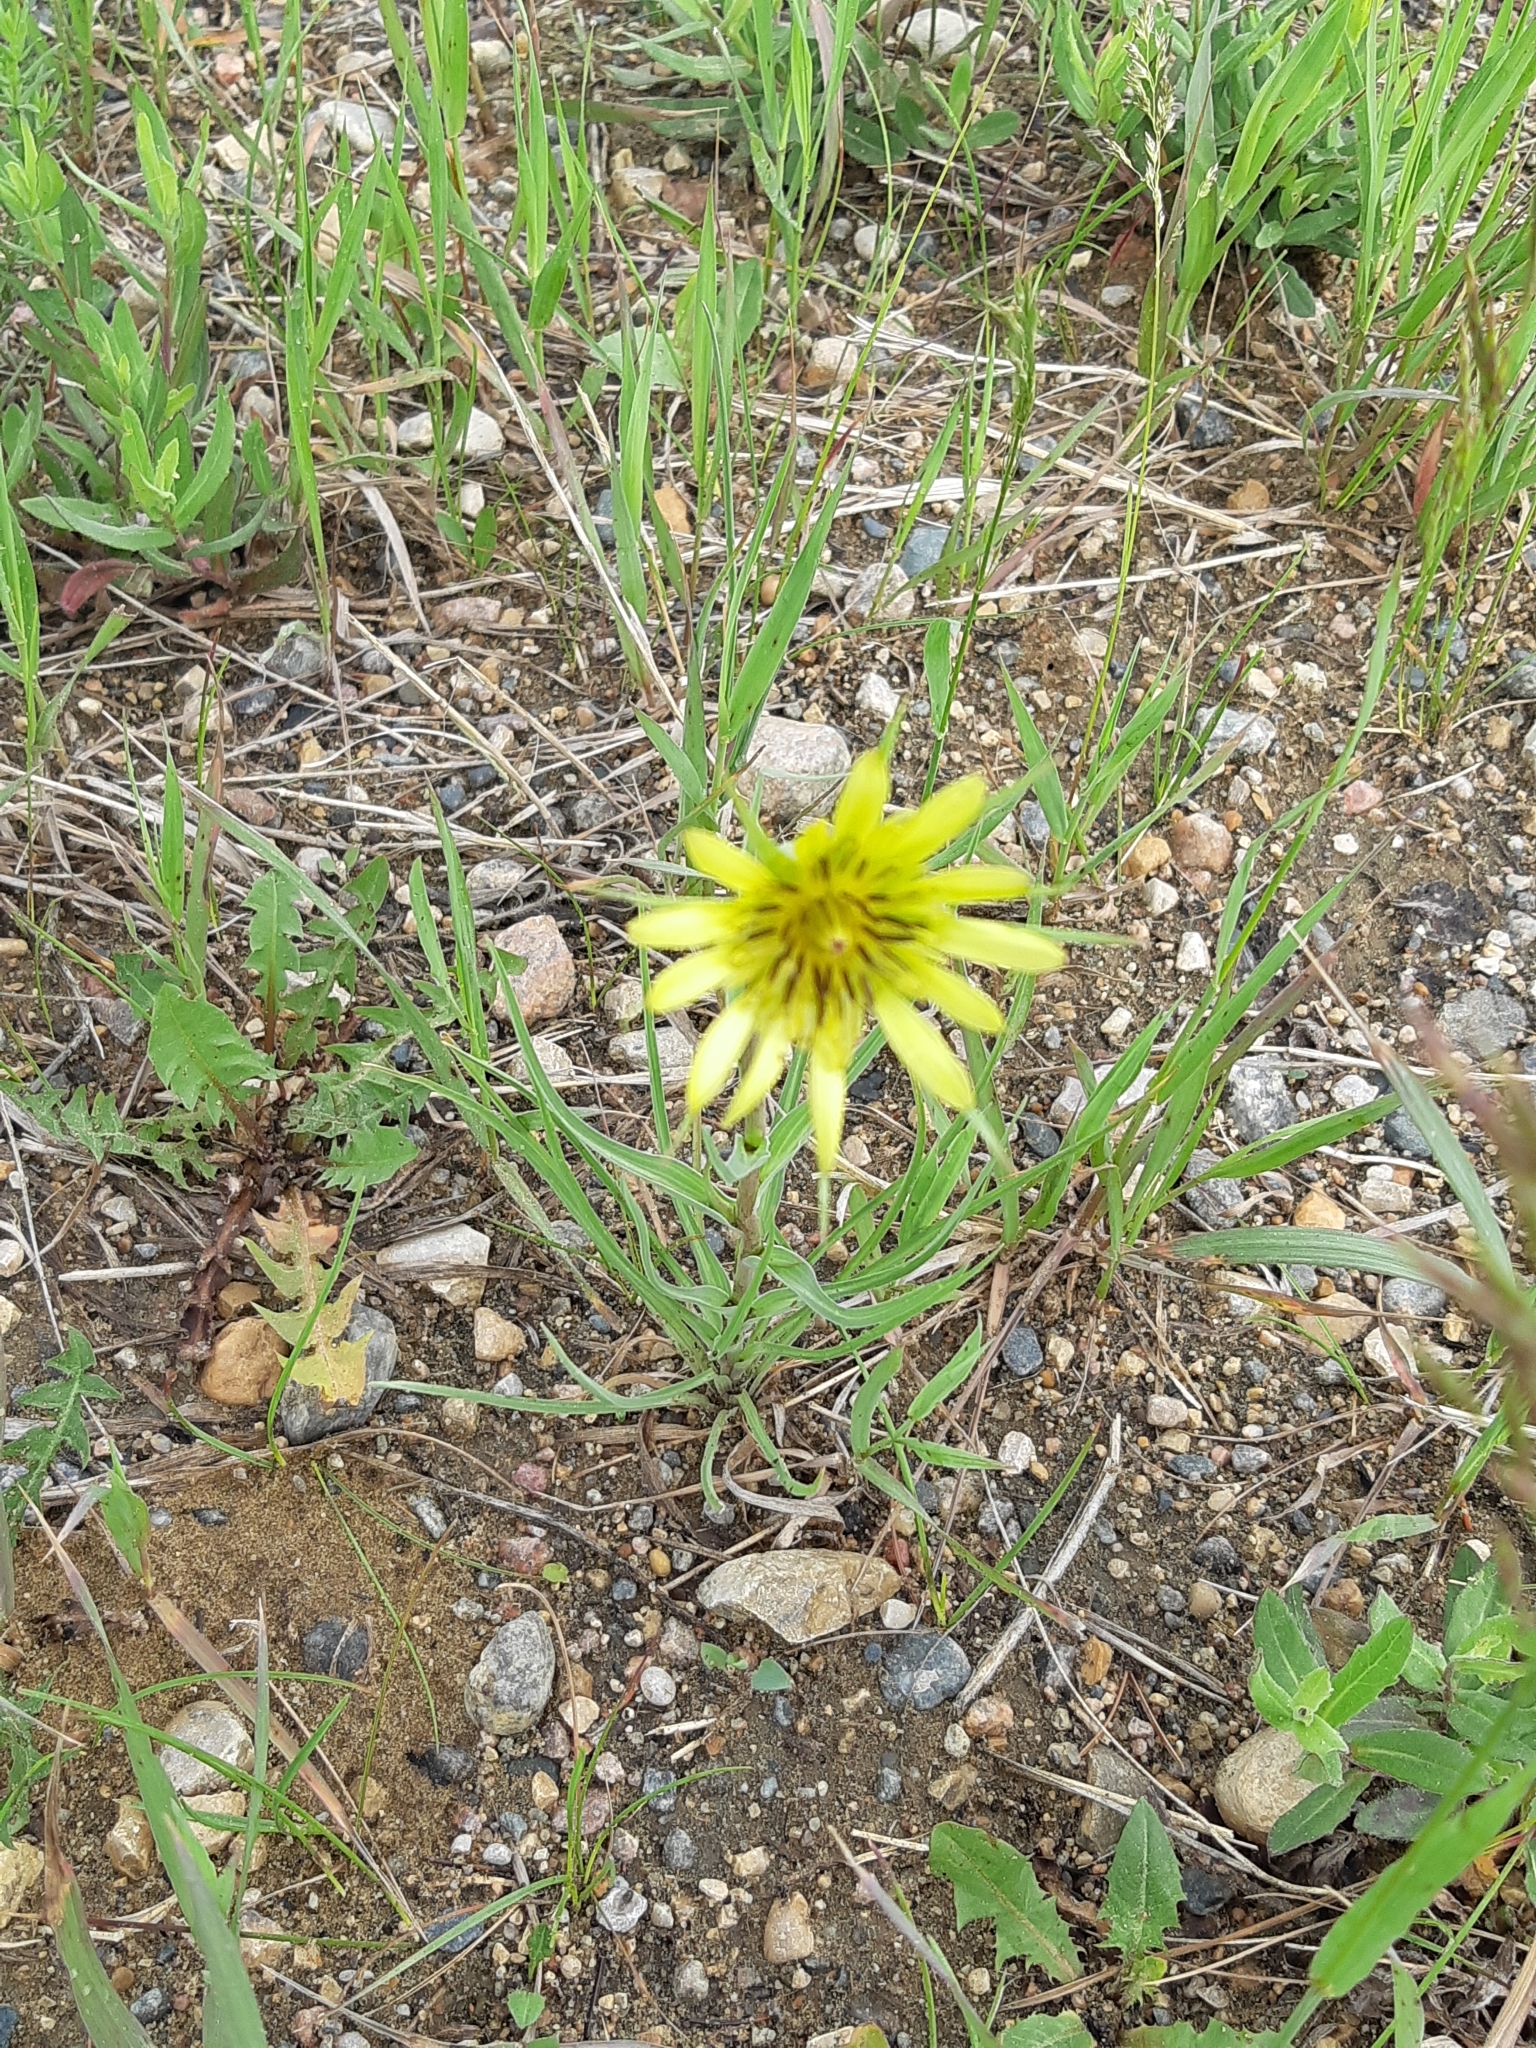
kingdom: Plantae
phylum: Tracheophyta
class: Magnoliopsida
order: Asterales
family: Asteraceae
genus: Tragopogon
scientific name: Tragopogon dubius
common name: Yellow salsify
